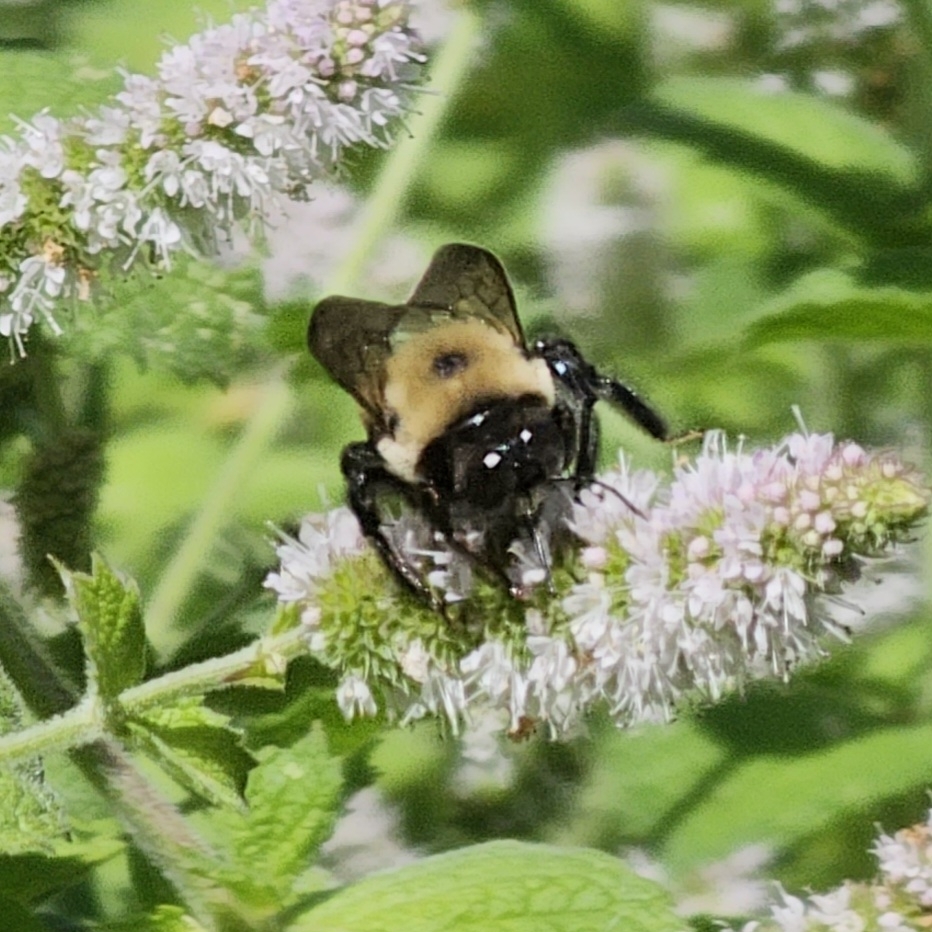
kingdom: Animalia
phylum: Arthropoda
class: Insecta
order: Hymenoptera
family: Apidae
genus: Xylocopa
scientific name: Xylocopa virginica
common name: Carpenter bee
